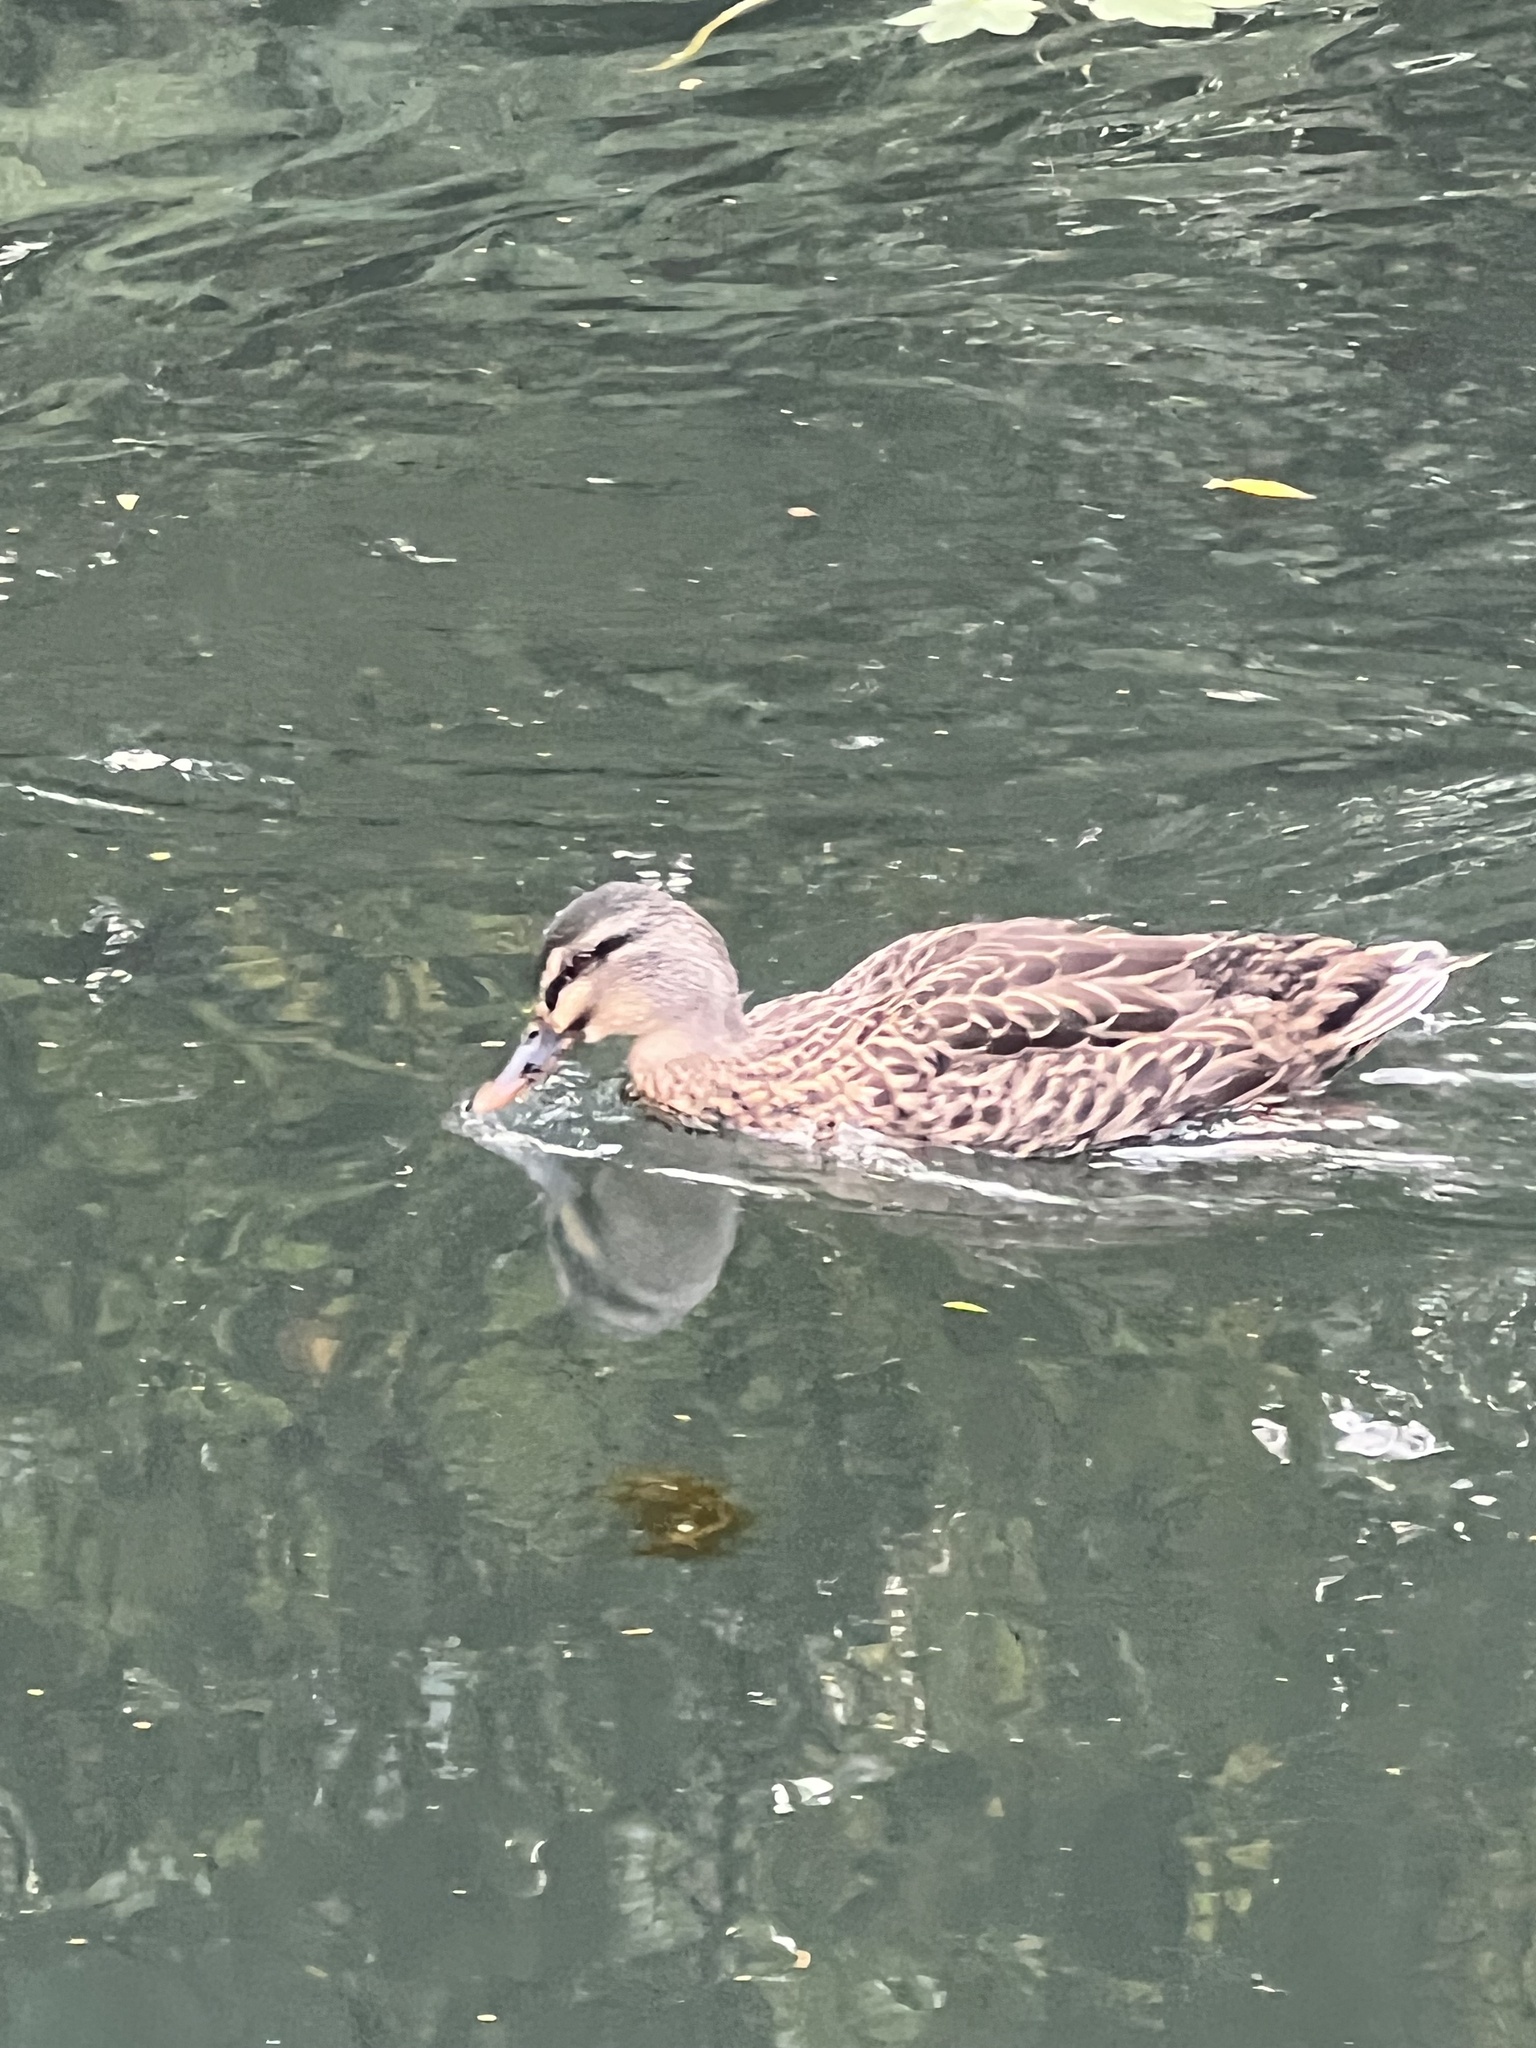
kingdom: Animalia
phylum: Chordata
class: Aves
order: Anseriformes
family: Anatidae
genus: Anas
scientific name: Anas
